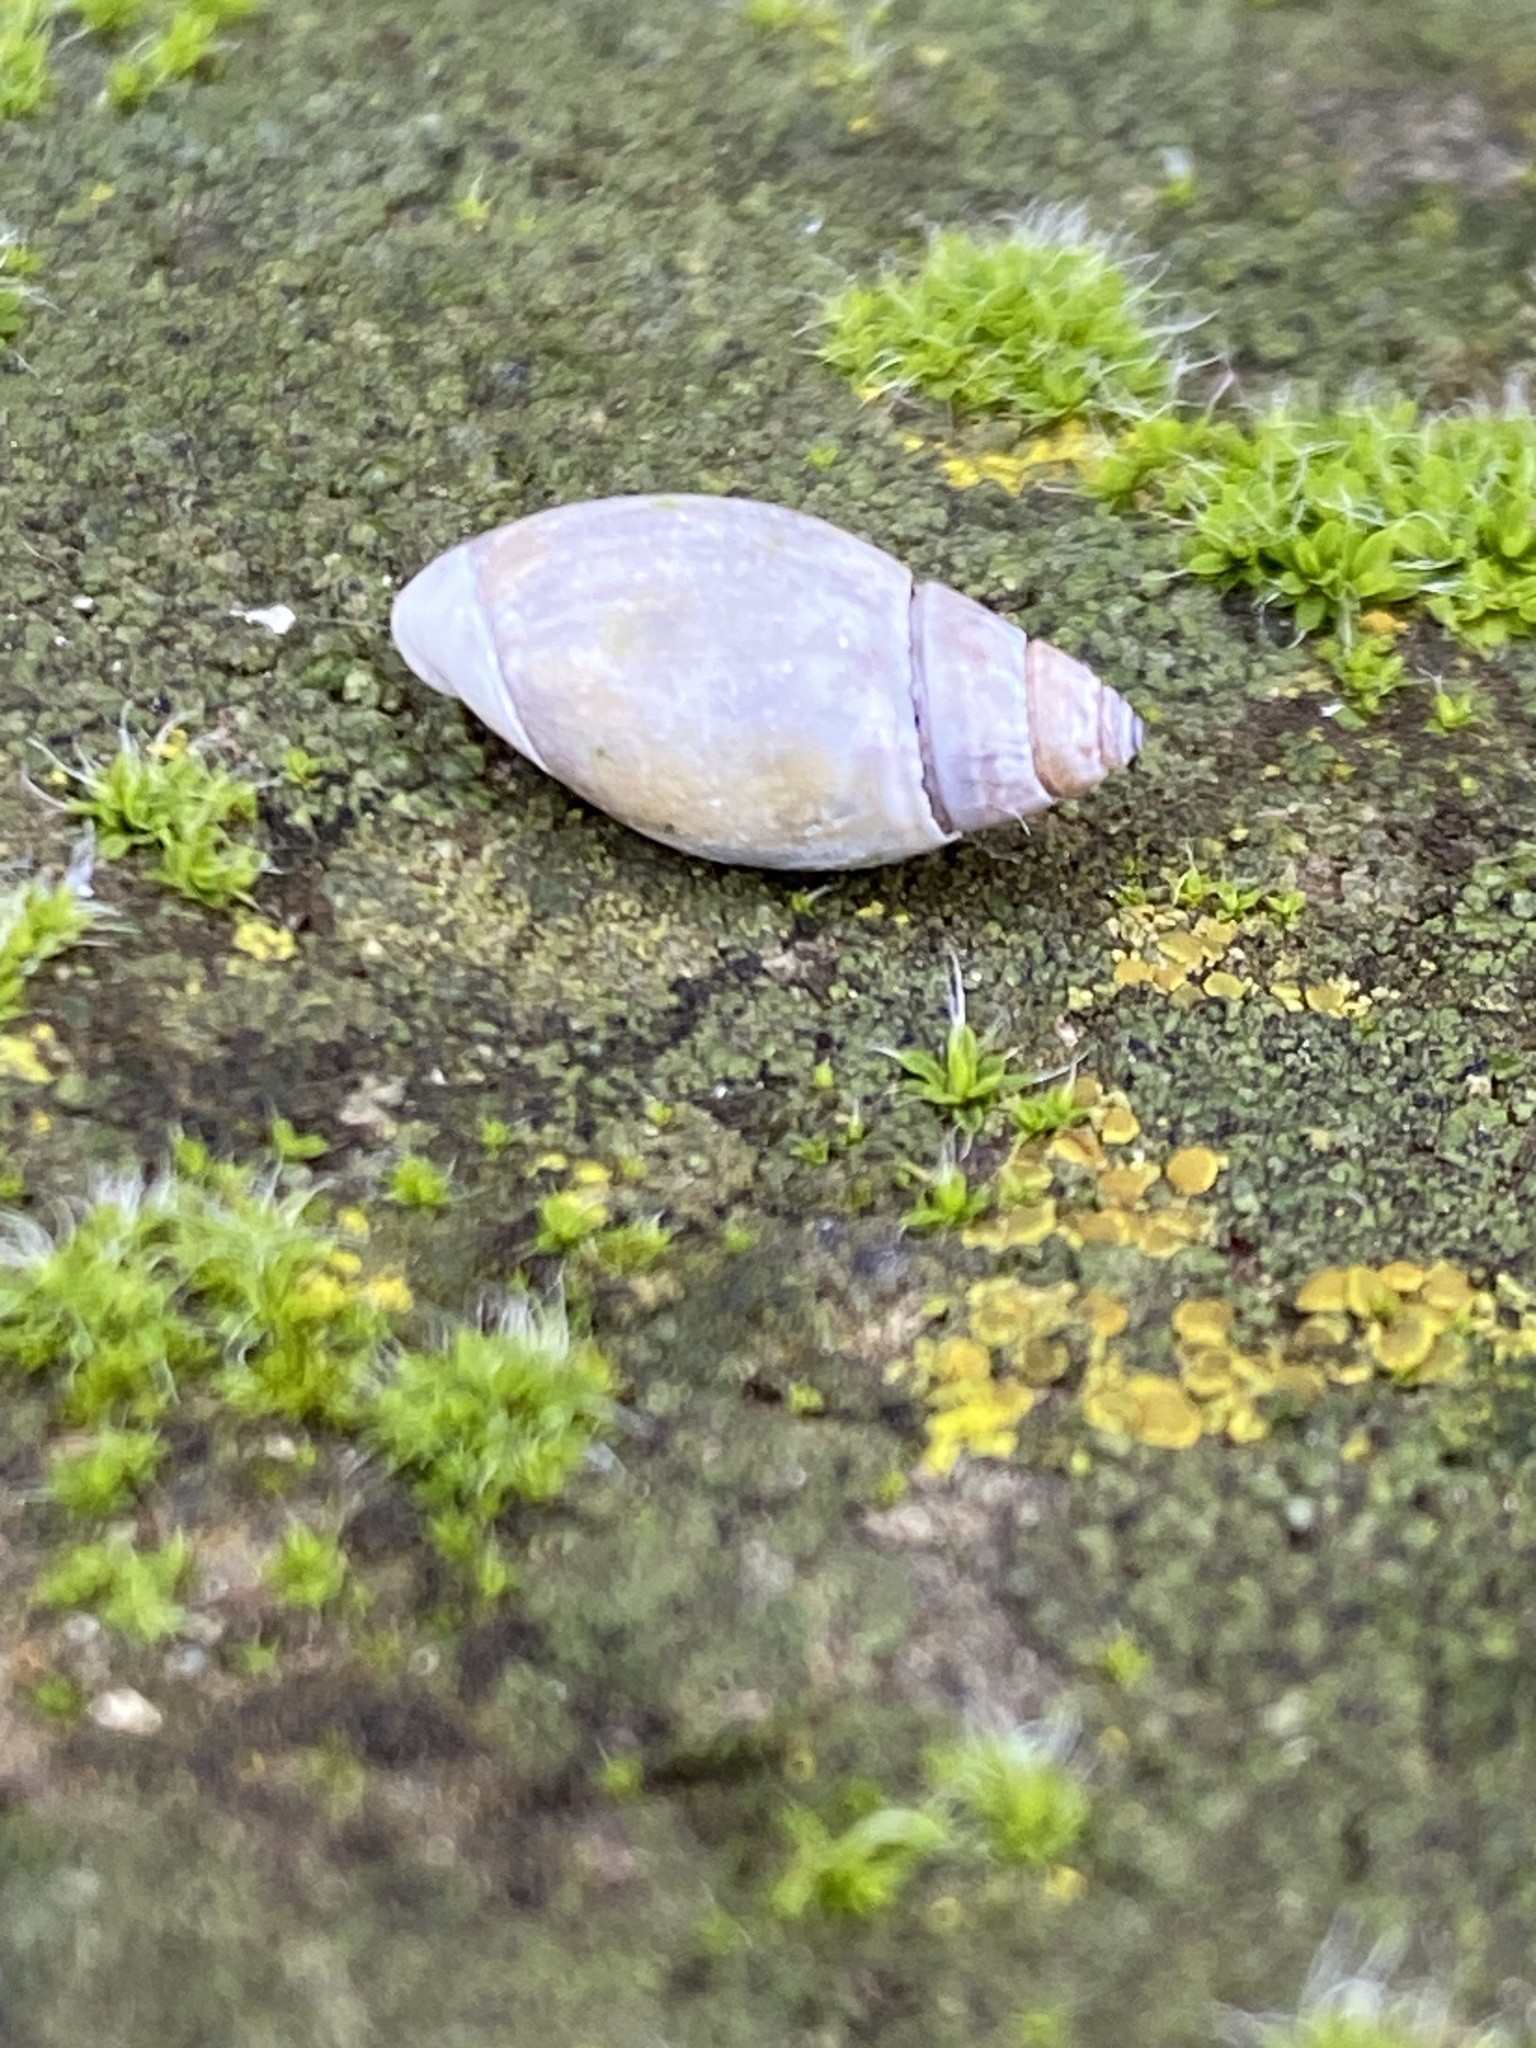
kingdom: Animalia
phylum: Mollusca
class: Gastropoda
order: Neogastropoda
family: Olividae
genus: Olivella
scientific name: Olivella pedroana
